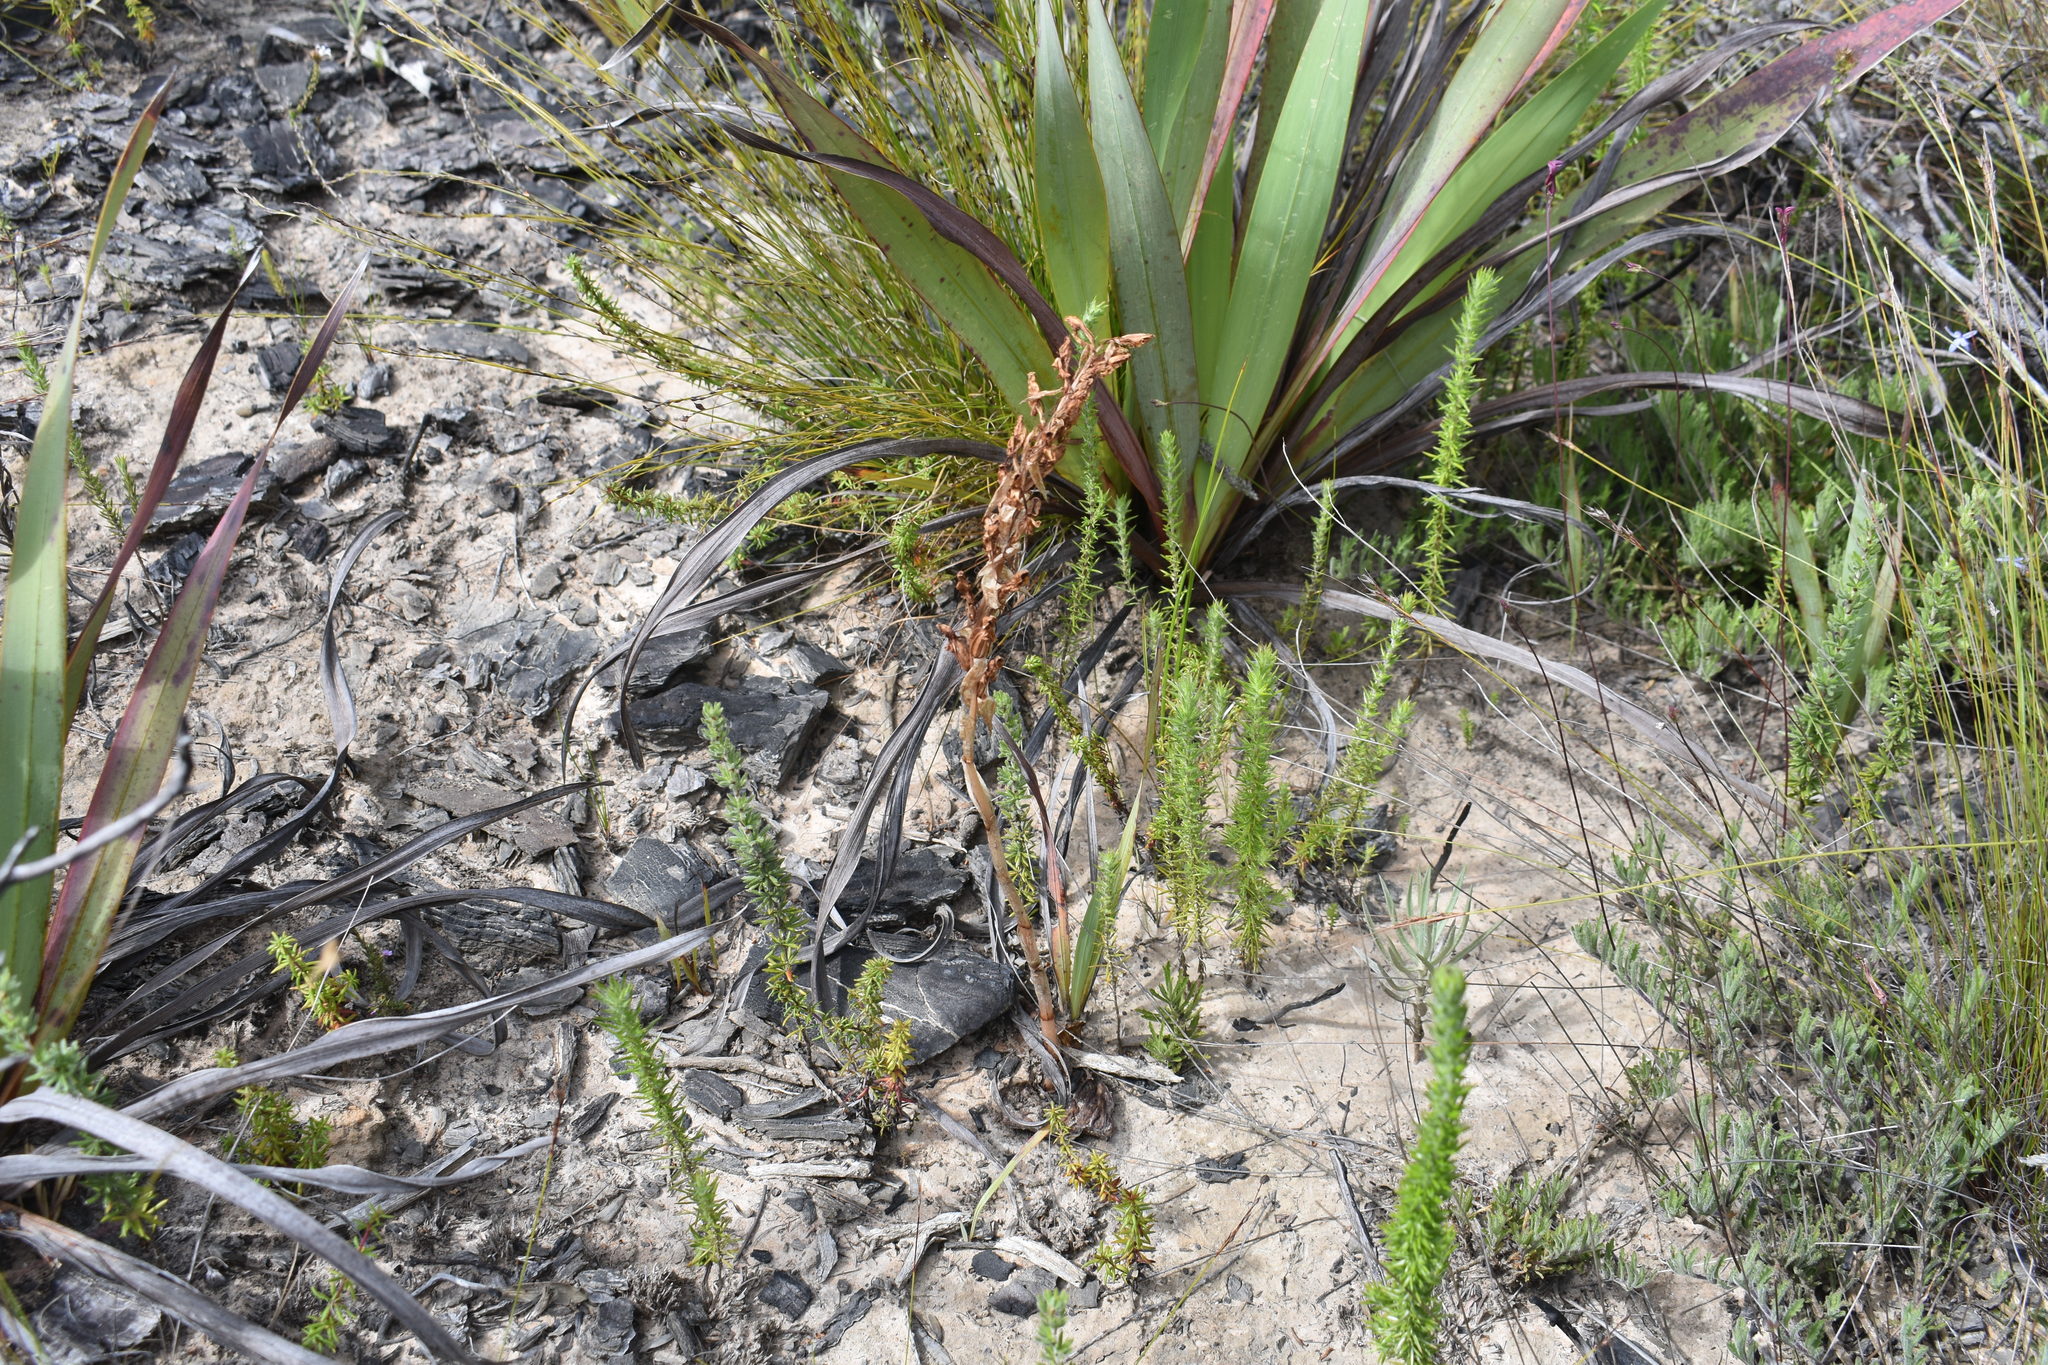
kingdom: Plantae
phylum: Tracheophyta
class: Liliopsida
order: Asparagales
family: Orchidaceae
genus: Satyrium
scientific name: Satyrium longicolle
